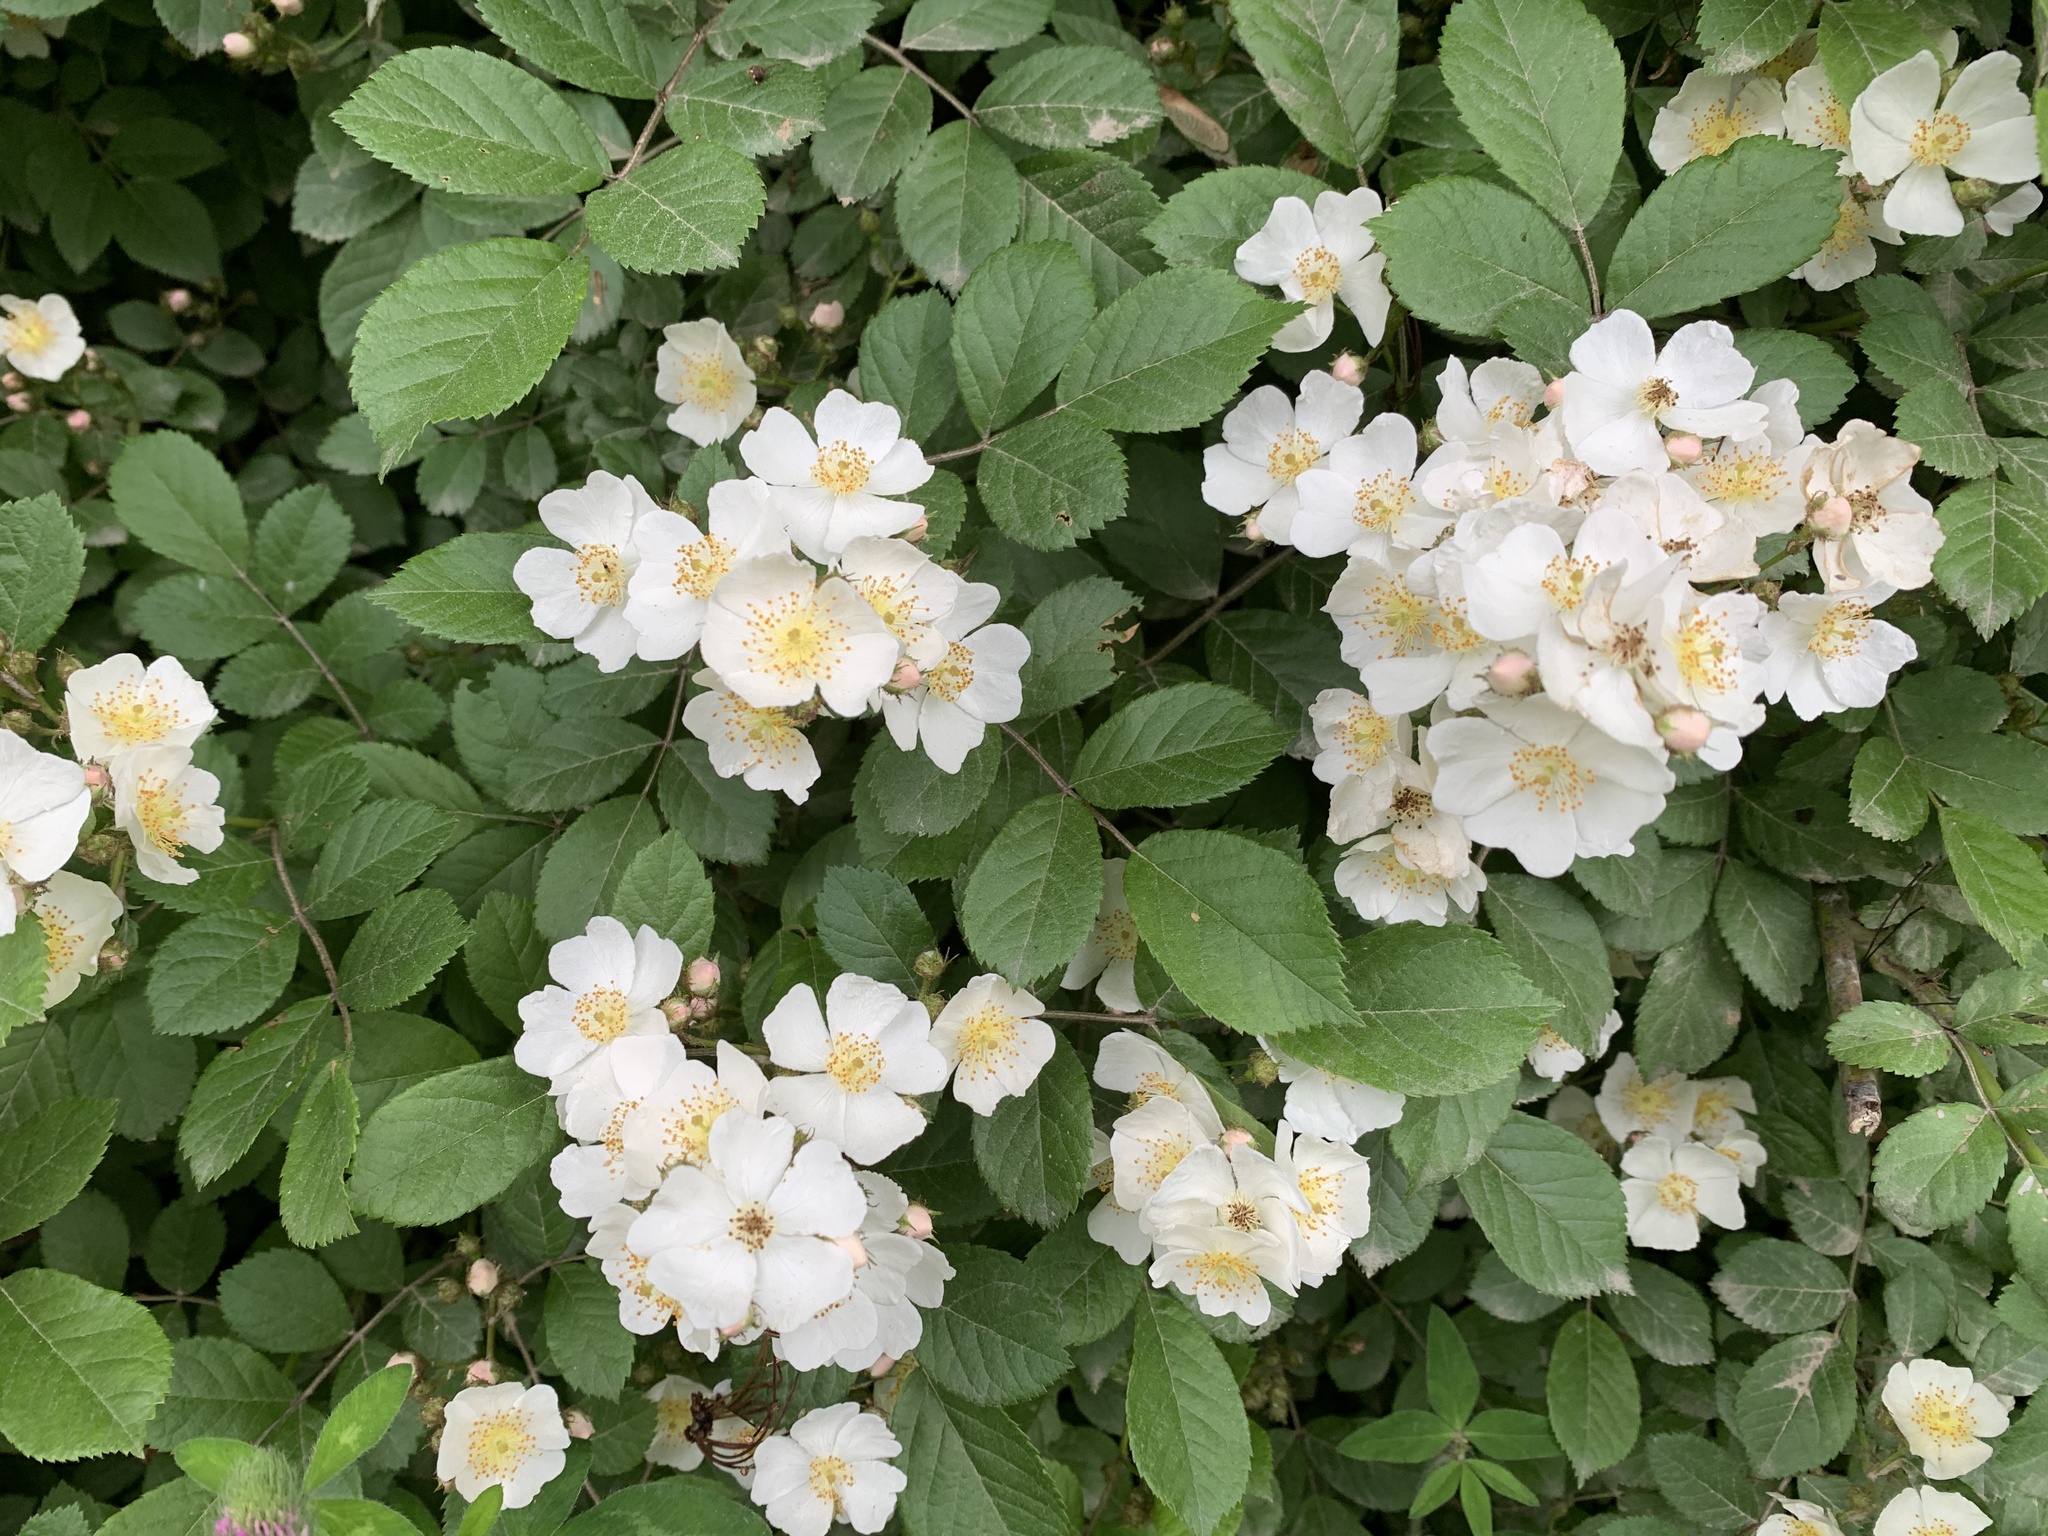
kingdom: Plantae
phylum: Tracheophyta
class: Magnoliopsida
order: Rosales
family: Rosaceae
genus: Rosa
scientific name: Rosa multiflora
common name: Multiflora rose
